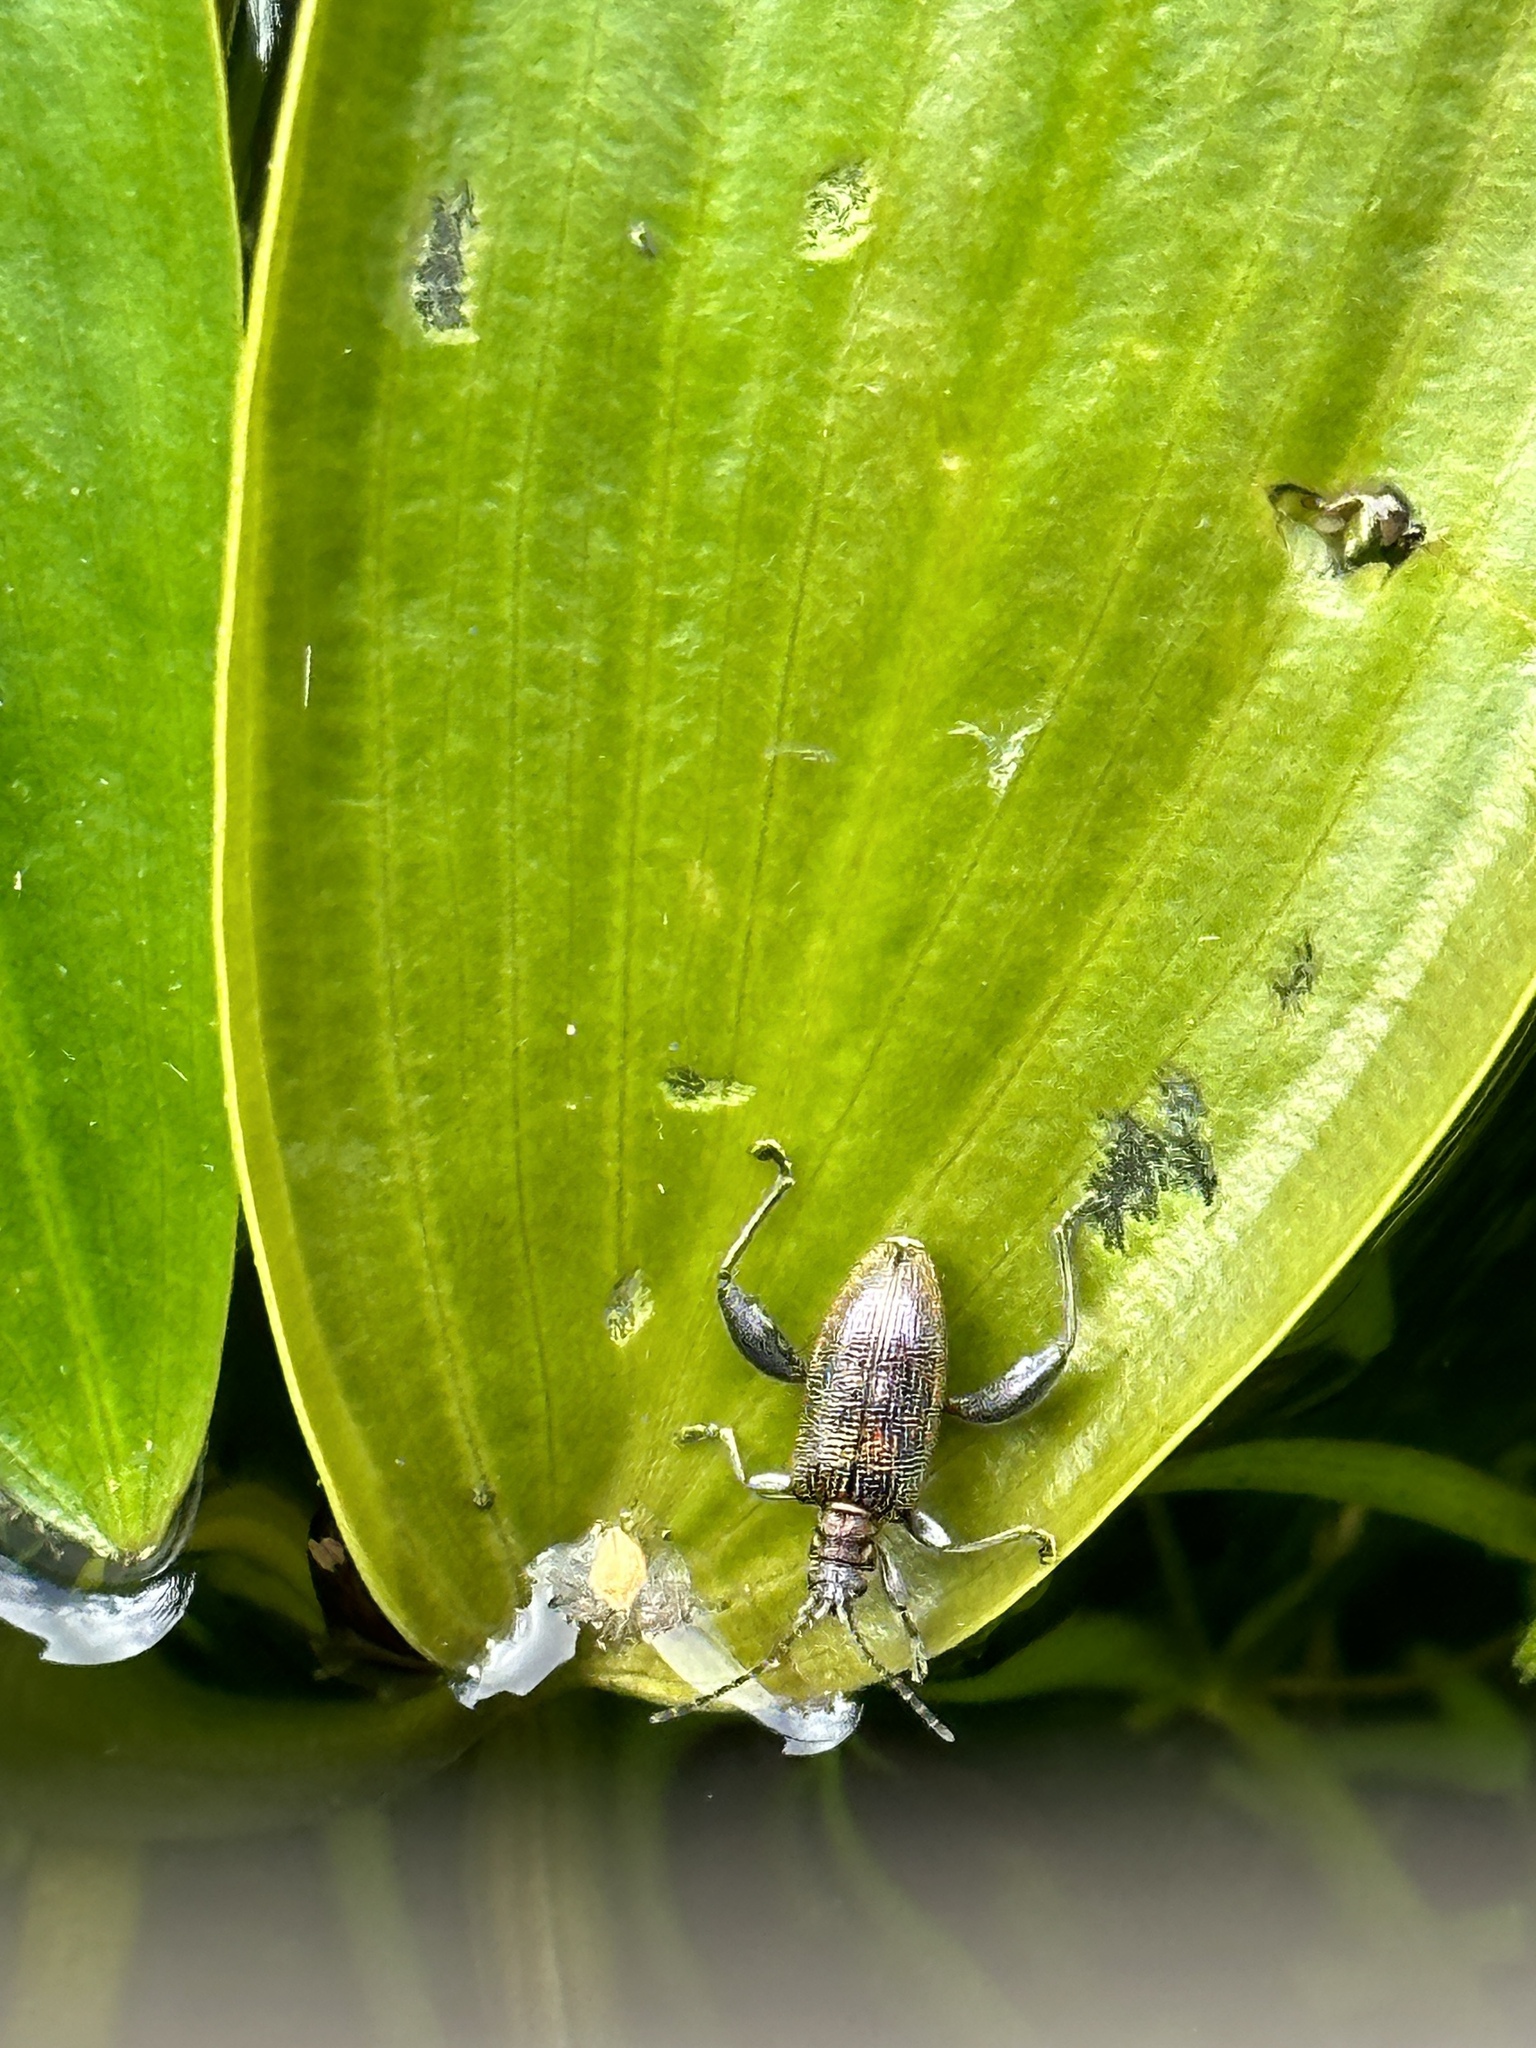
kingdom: Animalia
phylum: Arthropoda
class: Insecta
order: Coleoptera
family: Chrysomelidae
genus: Donacia
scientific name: Donacia versicolorea
